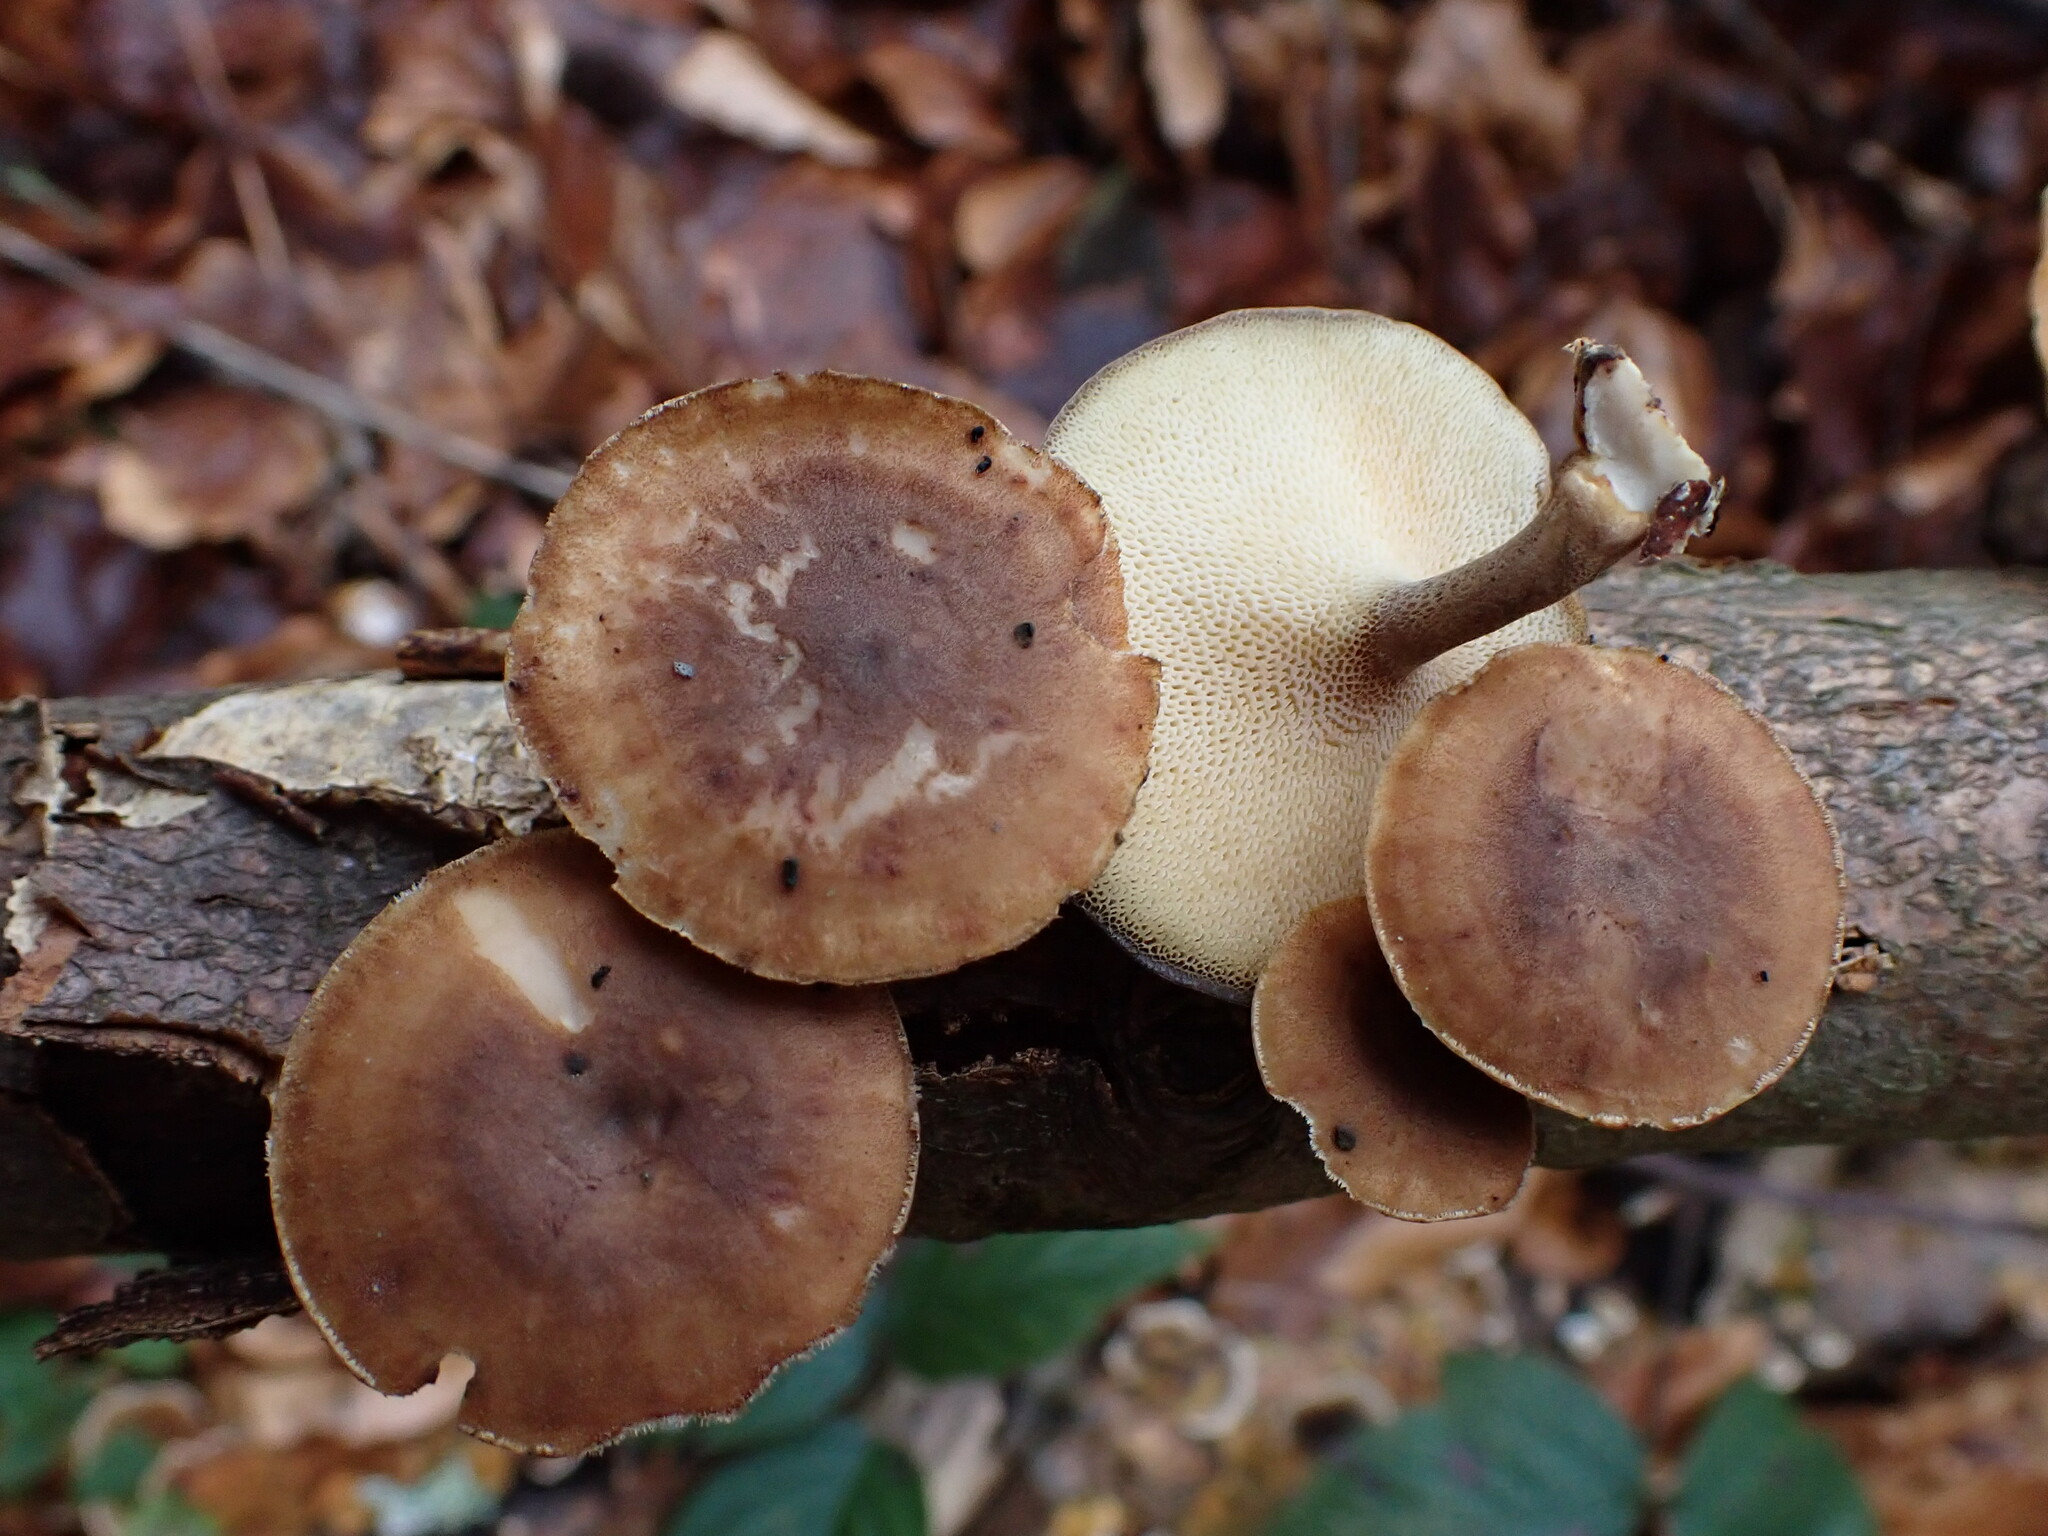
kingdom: Fungi
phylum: Basidiomycota
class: Agaricomycetes
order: Polyporales
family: Polyporaceae
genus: Lentinus
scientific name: Lentinus brumalis
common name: Winter polypore
